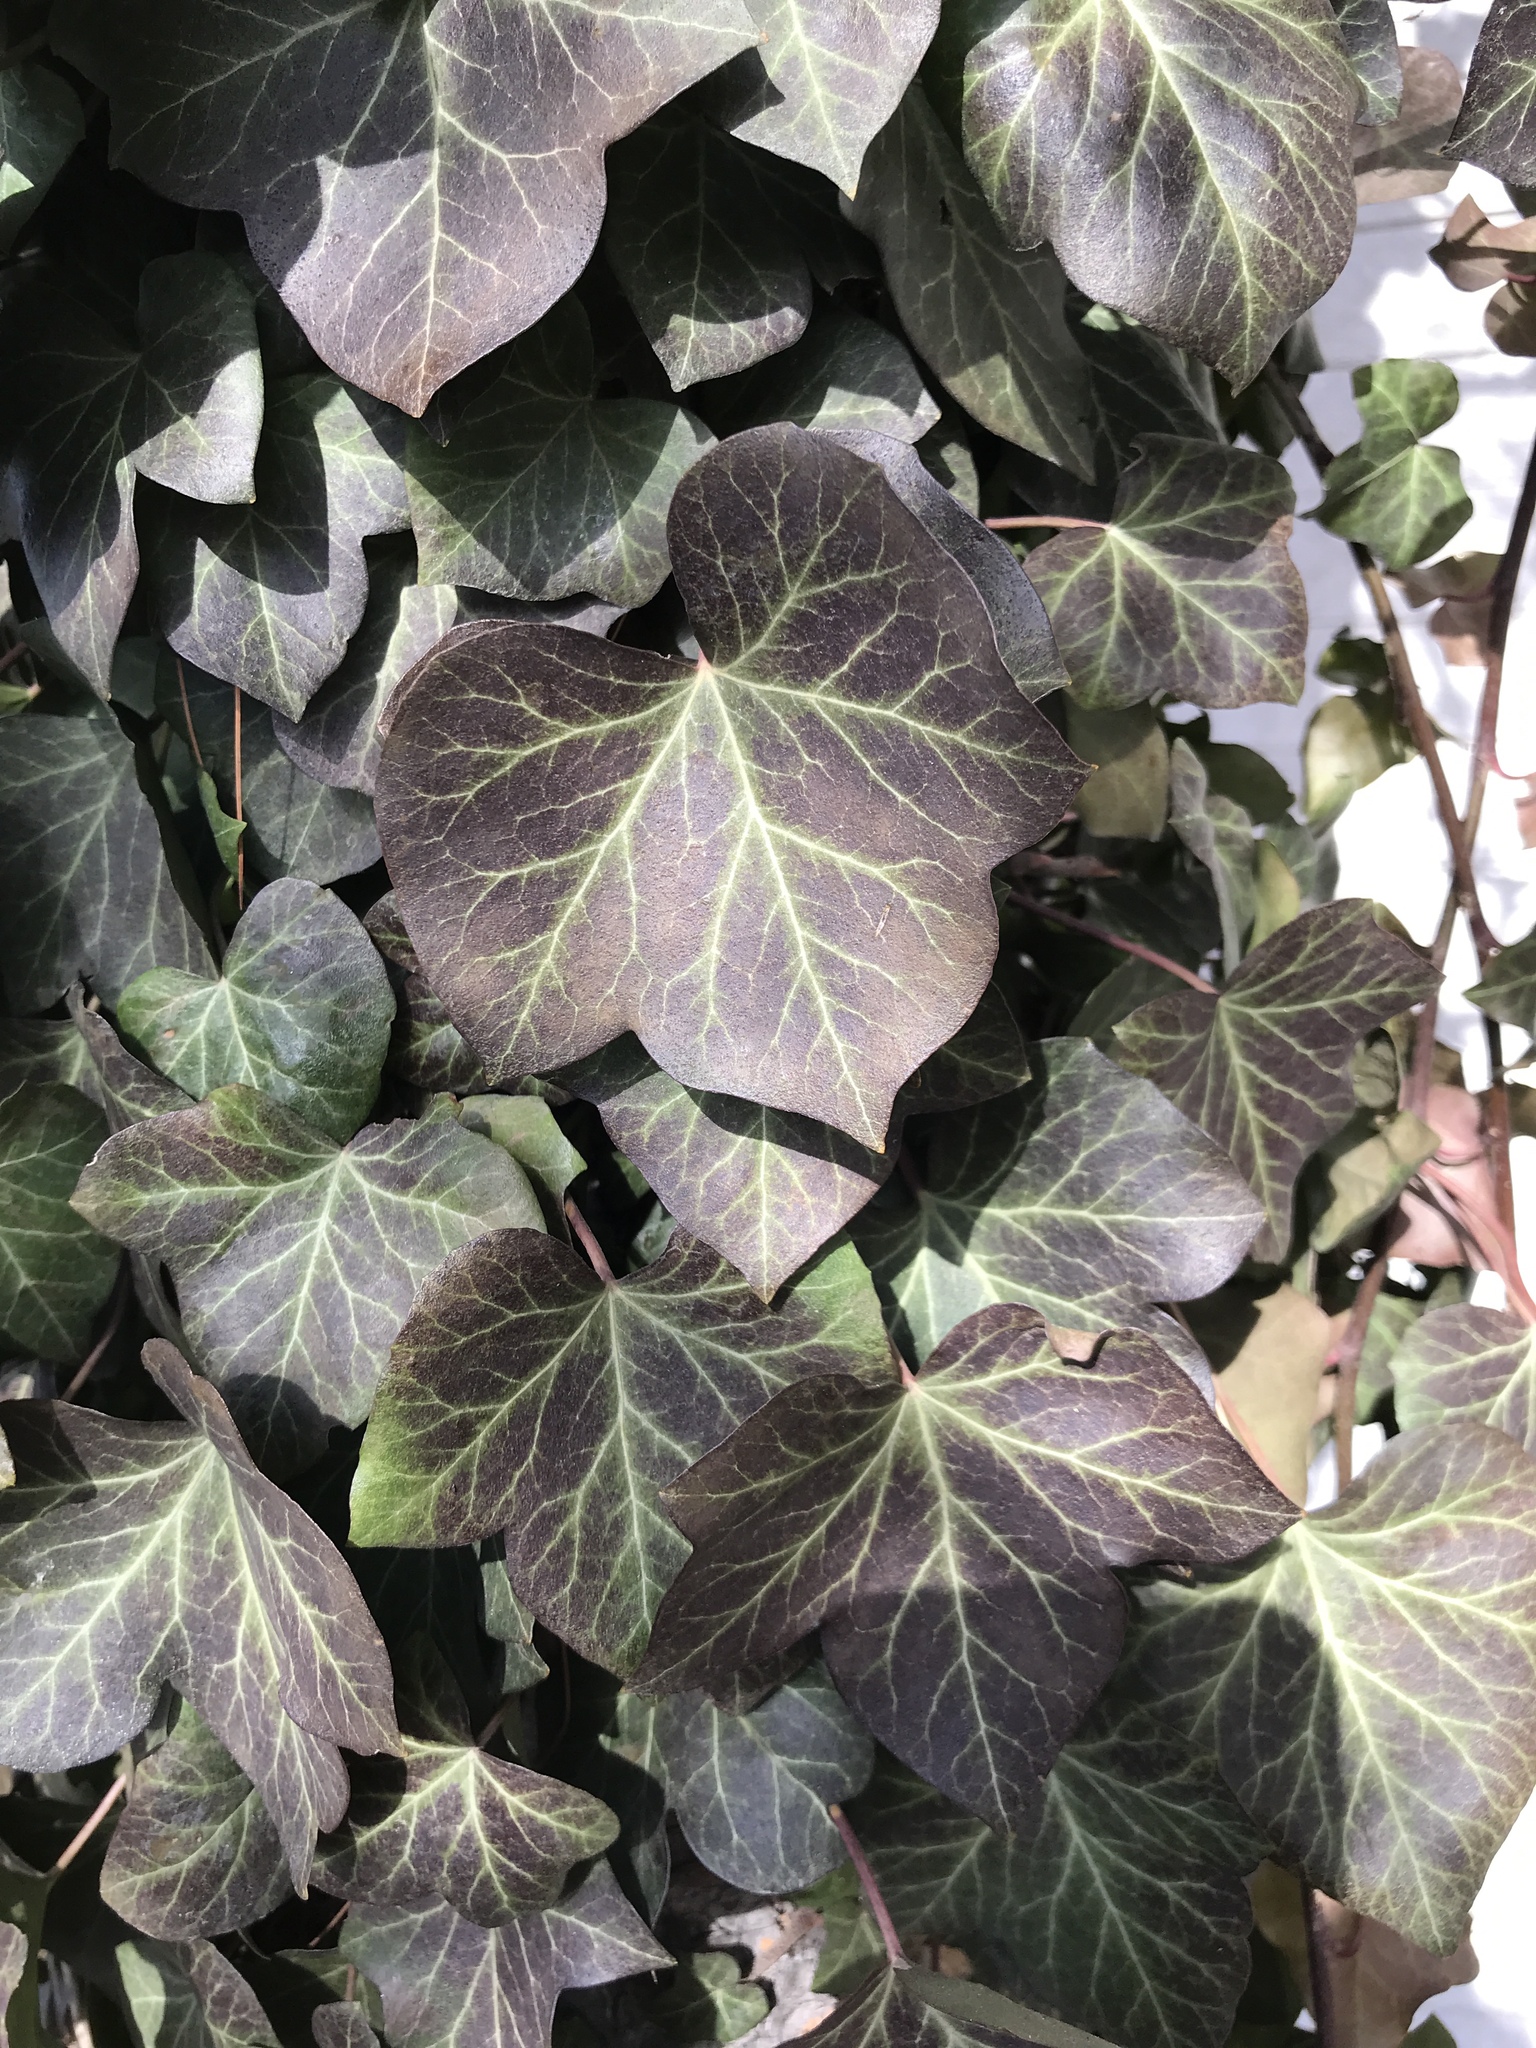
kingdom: Plantae
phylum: Tracheophyta
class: Magnoliopsida
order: Apiales
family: Araliaceae
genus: Hedera
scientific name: Hedera helix
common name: Ivy
